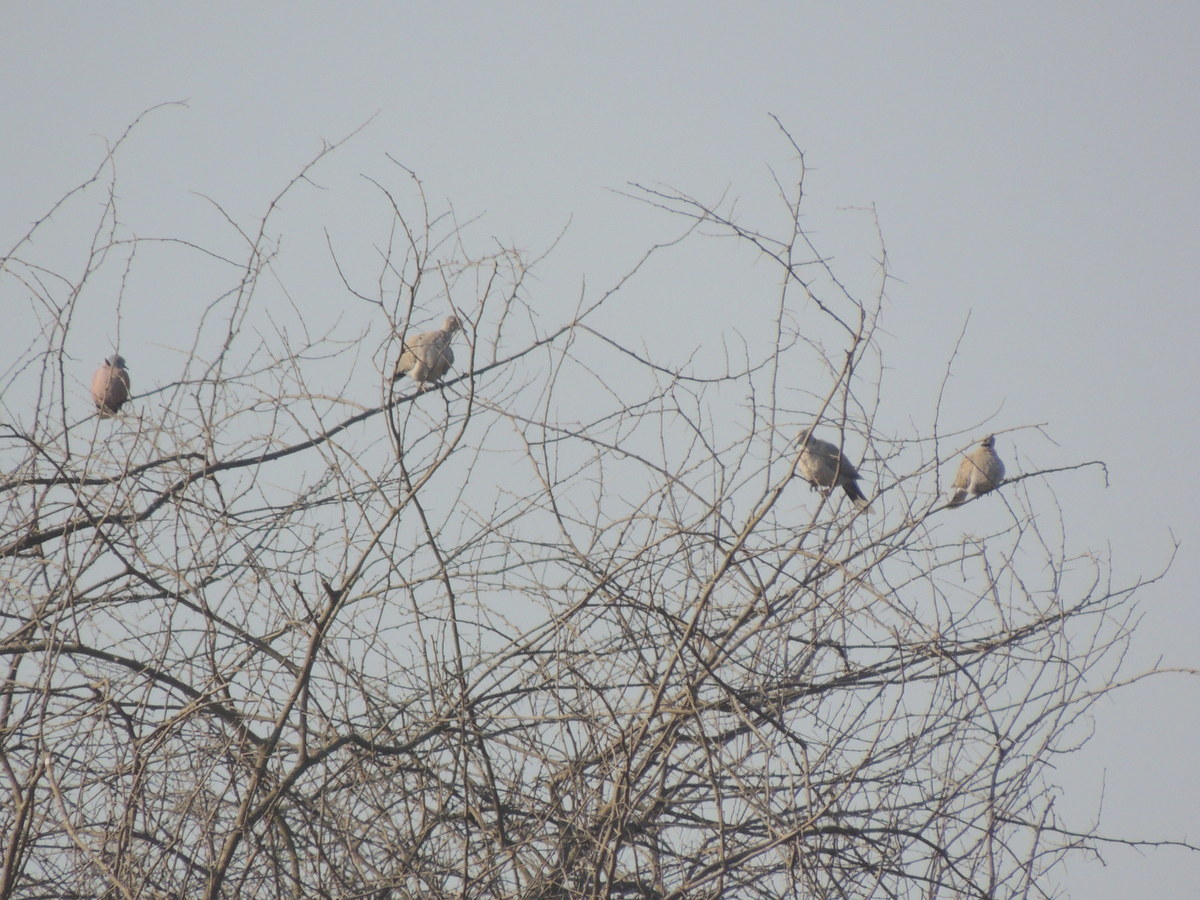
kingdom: Animalia
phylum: Chordata
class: Aves
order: Columbiformes
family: Columbidae
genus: Streptopelia
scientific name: Streptopelia decaocto
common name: Eurasian collared dove
